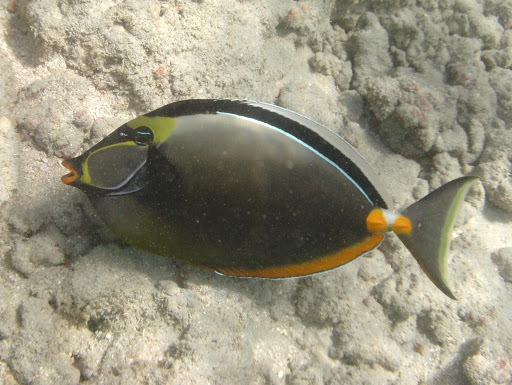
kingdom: Animalia
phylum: Chordata
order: Perciformes
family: Acanthuridae
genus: Naso
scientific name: Naso lituratus
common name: Orangespine unicornfish
